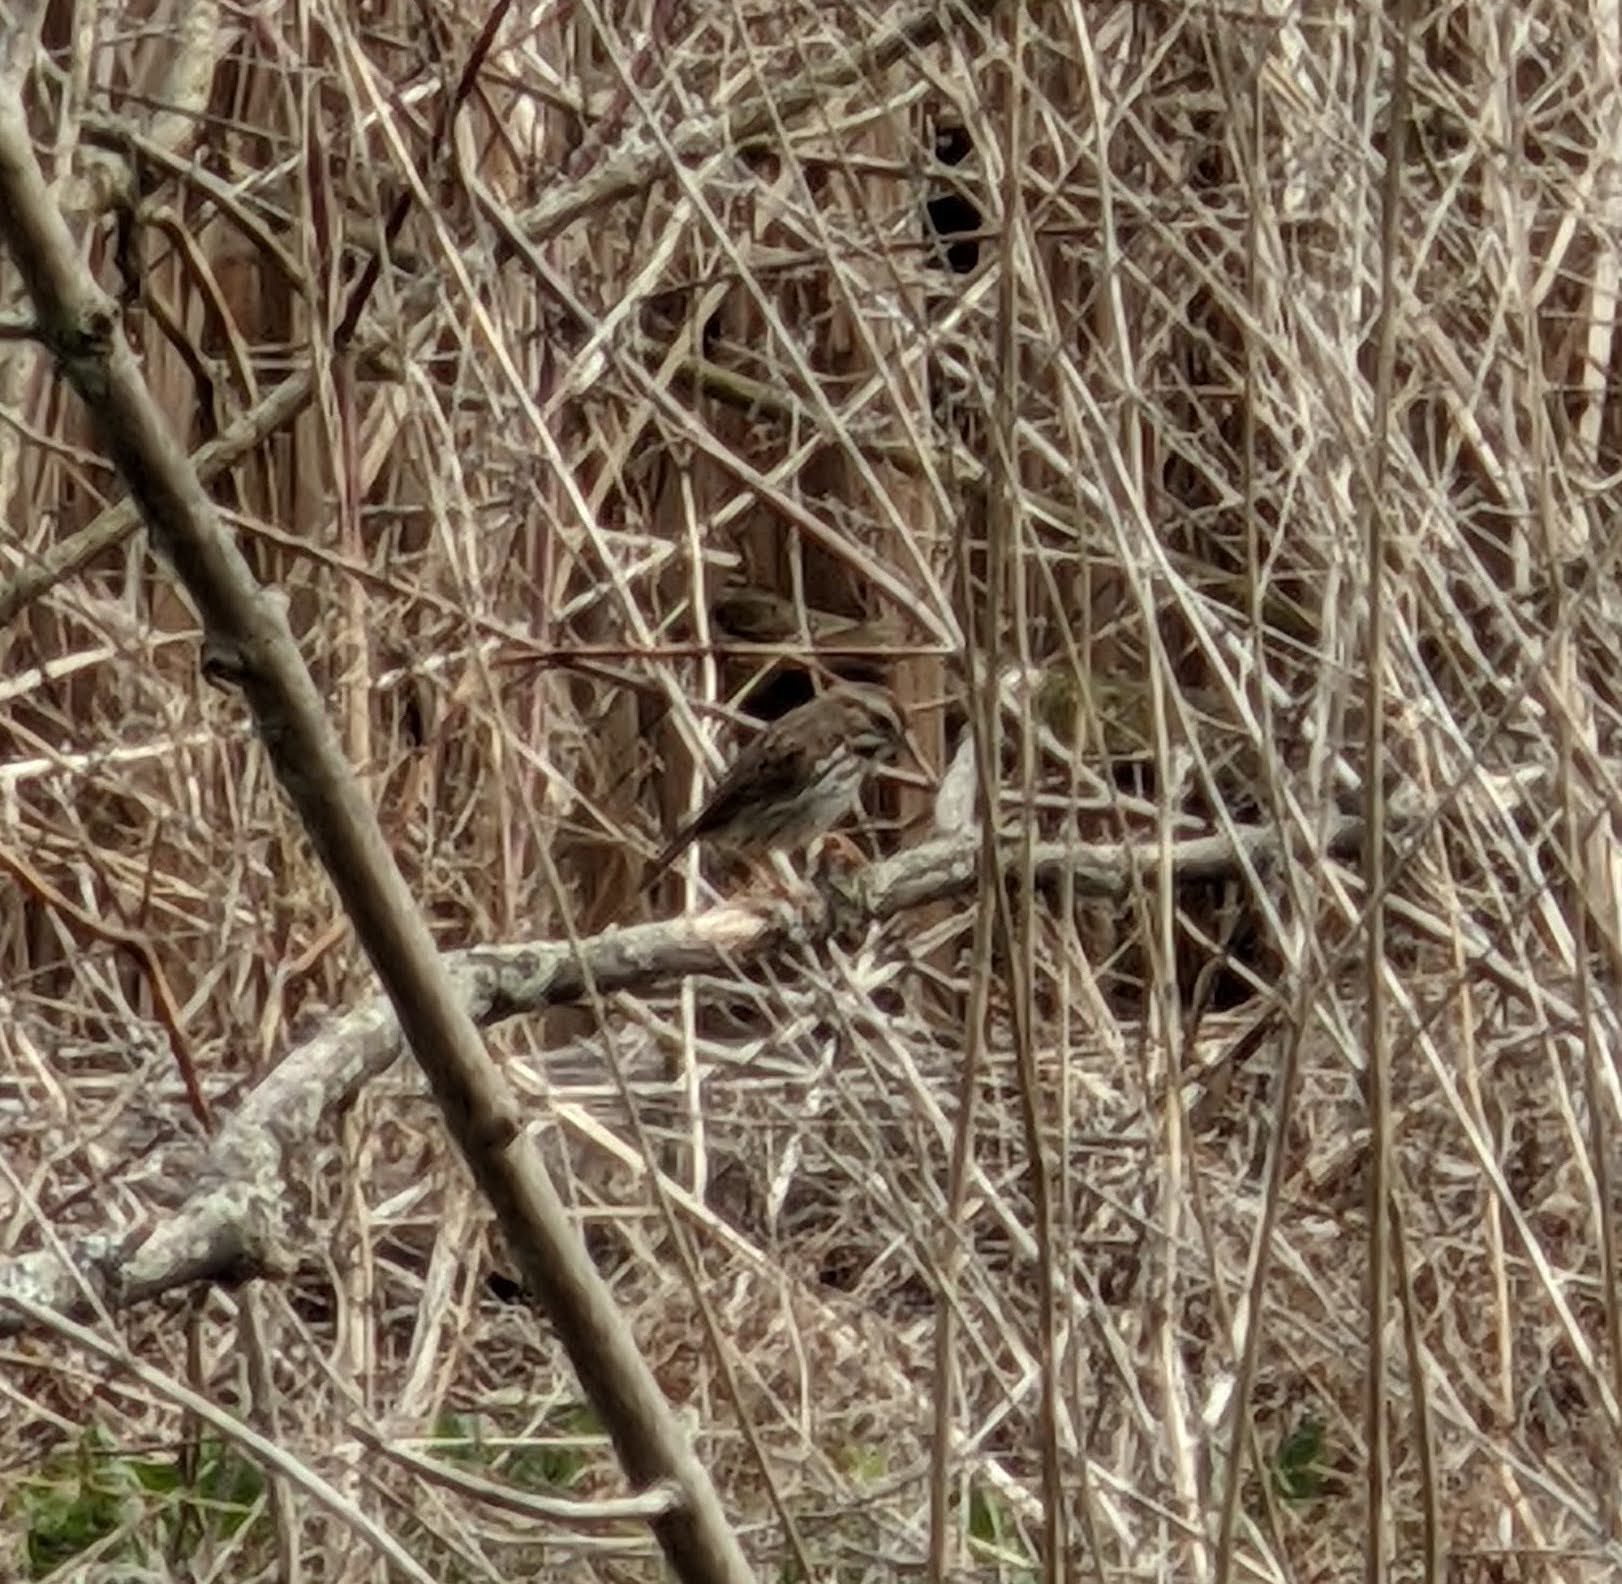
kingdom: Animalia
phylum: Chordata
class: Aves
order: Passeriformes
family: Passerellidae
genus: Melospiza
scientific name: Melospiza melodia
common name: Song sparrow
